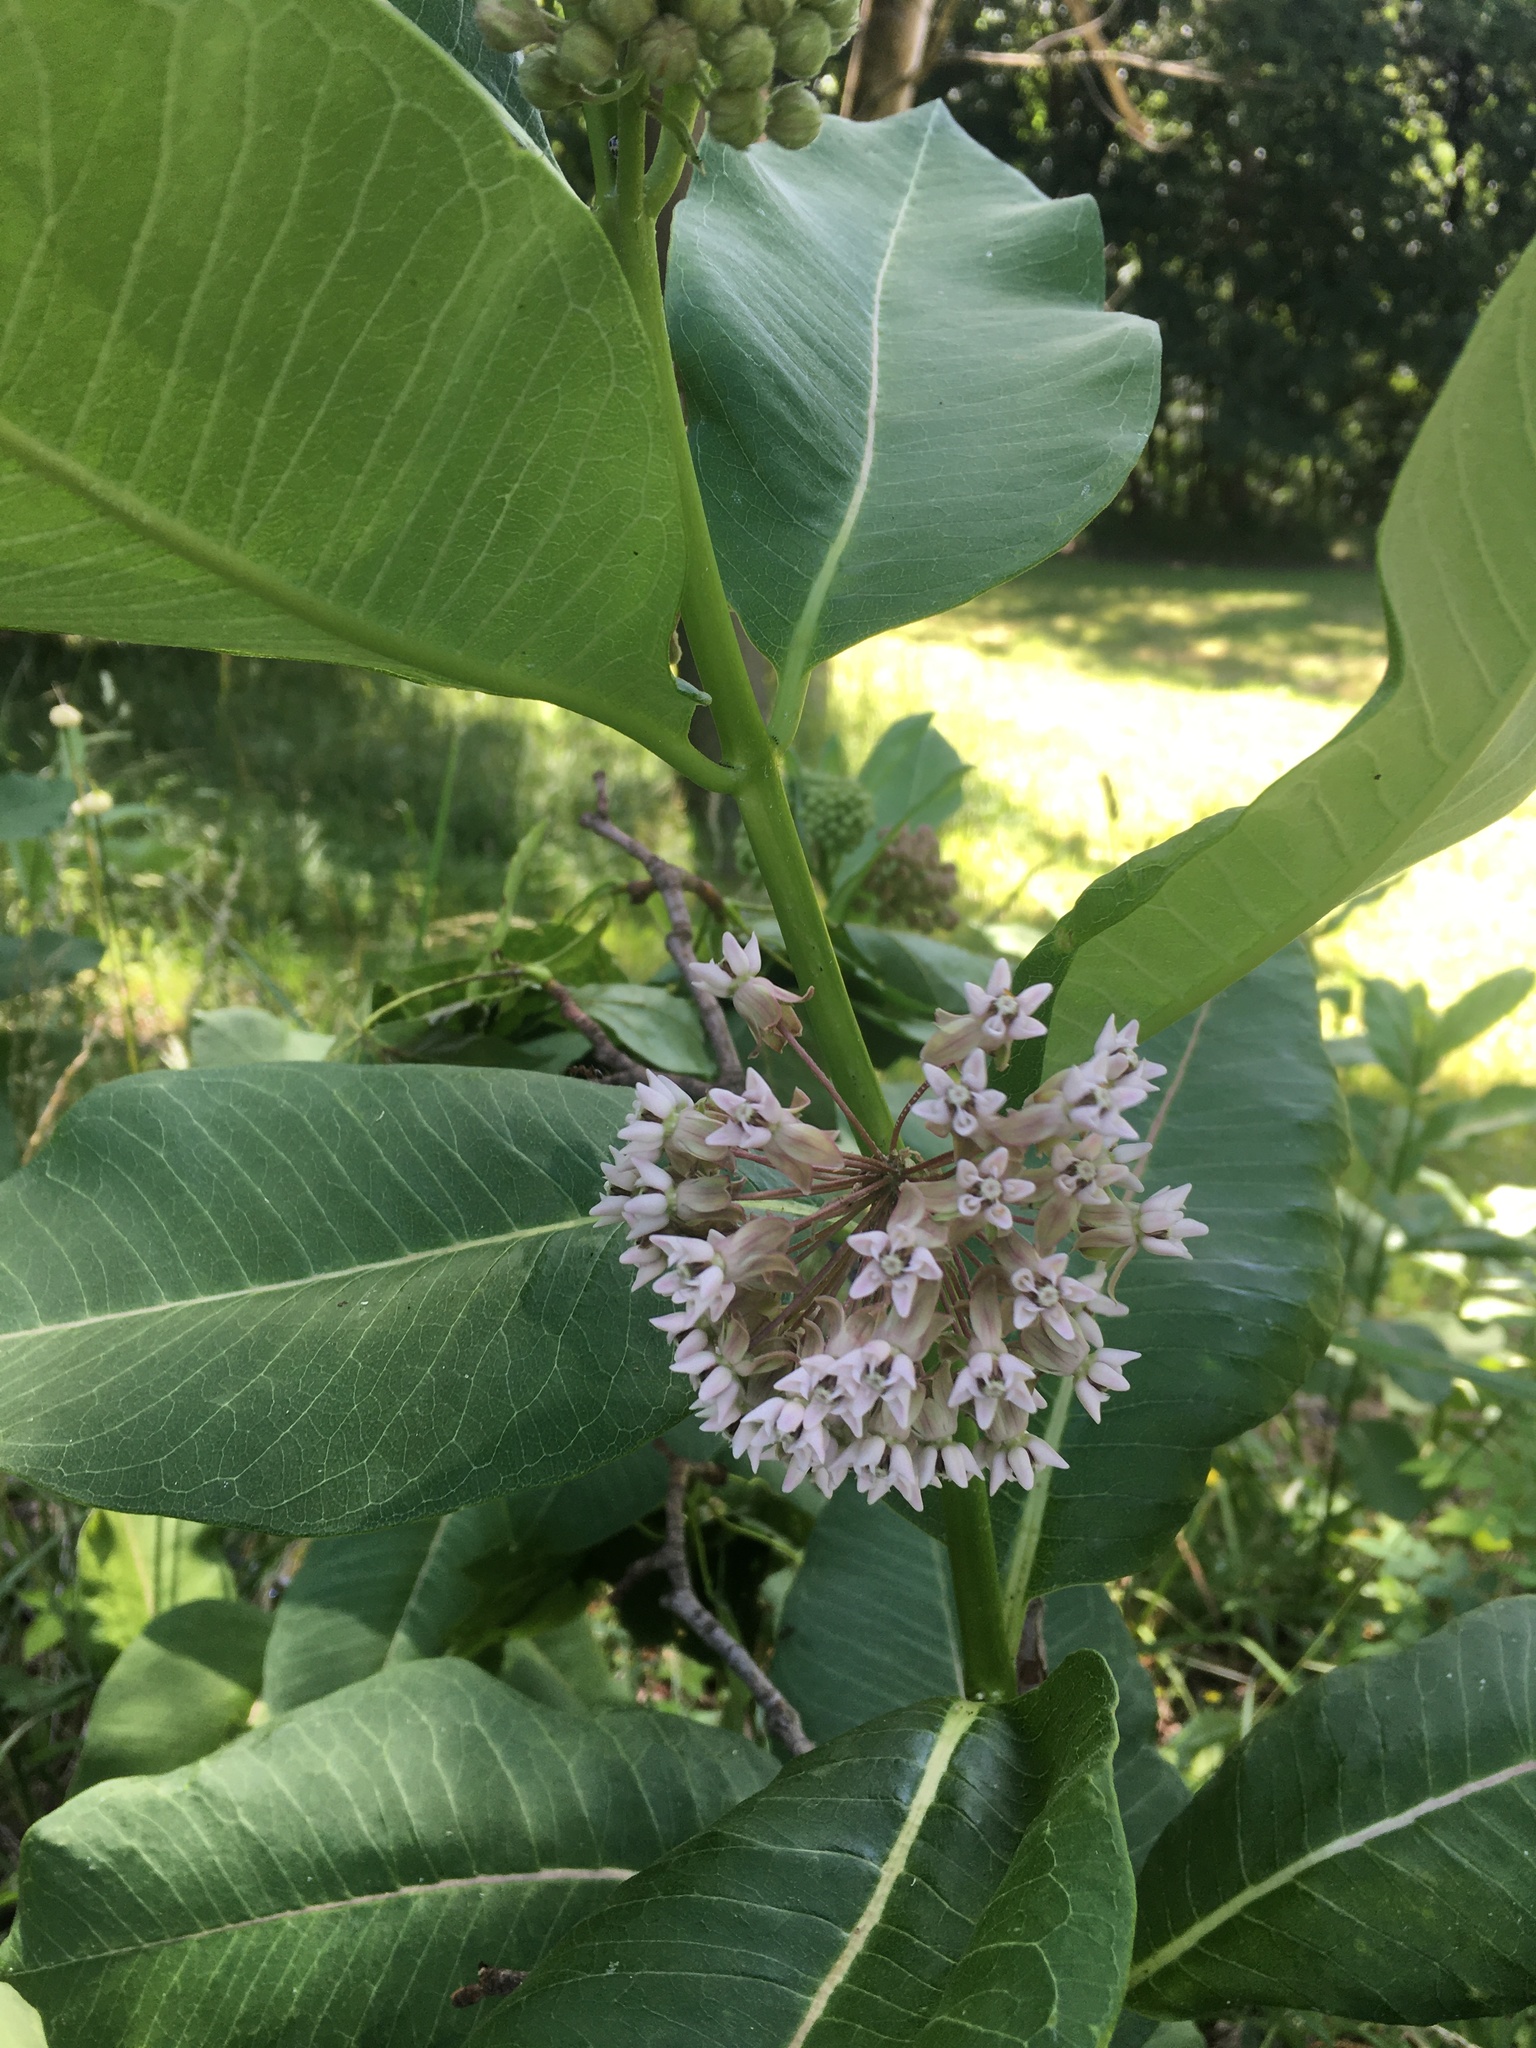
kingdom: Plantae
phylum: Tracheophyta
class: Magnoliopsida
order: Gentianales
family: Apocynaceae
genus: Asclepias
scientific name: Asclepias syriaca
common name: Common milkweed
